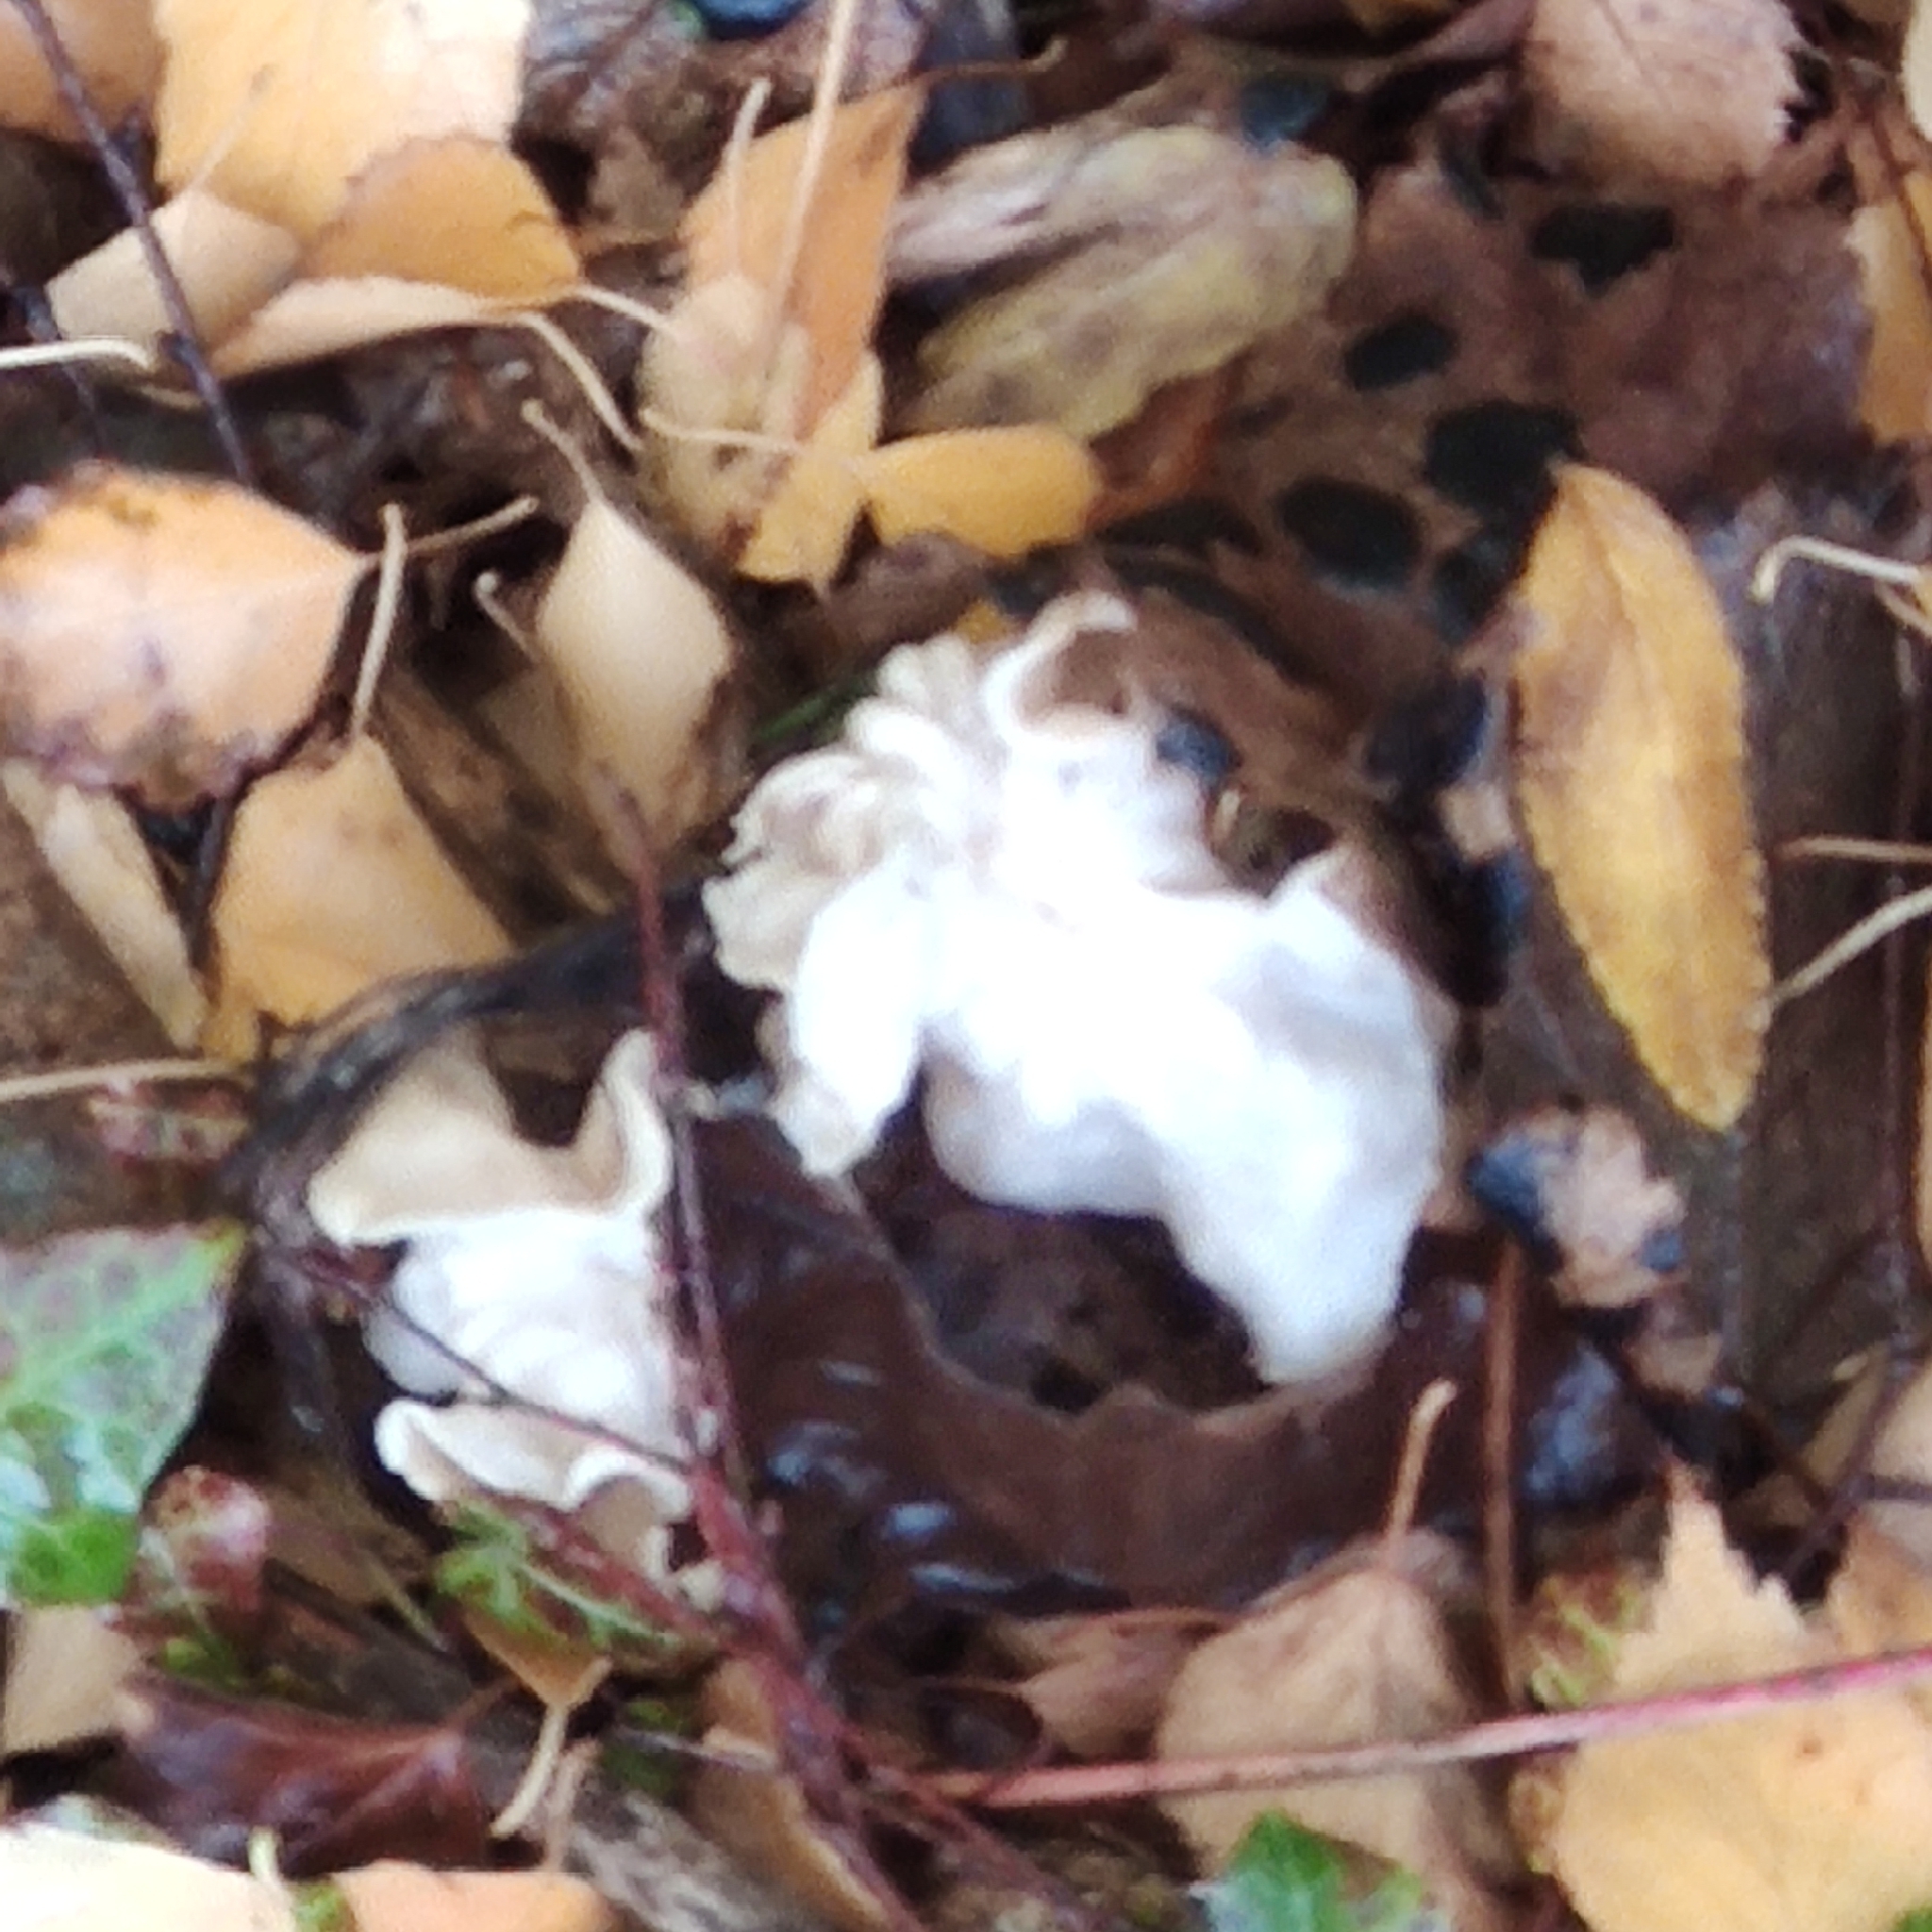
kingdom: Fungi
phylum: Ascomycota
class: Pezizomycetes
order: Pezizales
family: Helvellaceae
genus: Helvella
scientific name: Helvella crispa
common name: White saddle
